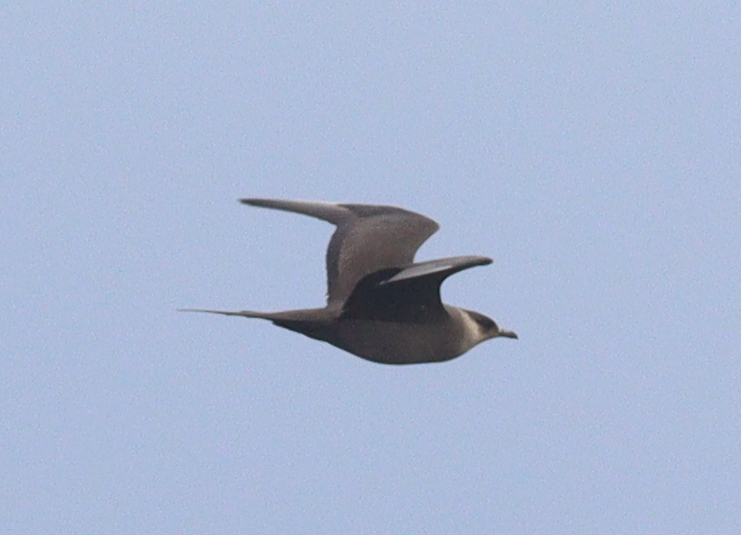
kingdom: Animalia
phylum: Chordata
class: Aves
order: Charadriiformes
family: Stercorariidae
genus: Stercorarius
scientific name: Stercorarius parasiticus
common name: Parasitic jaeger
